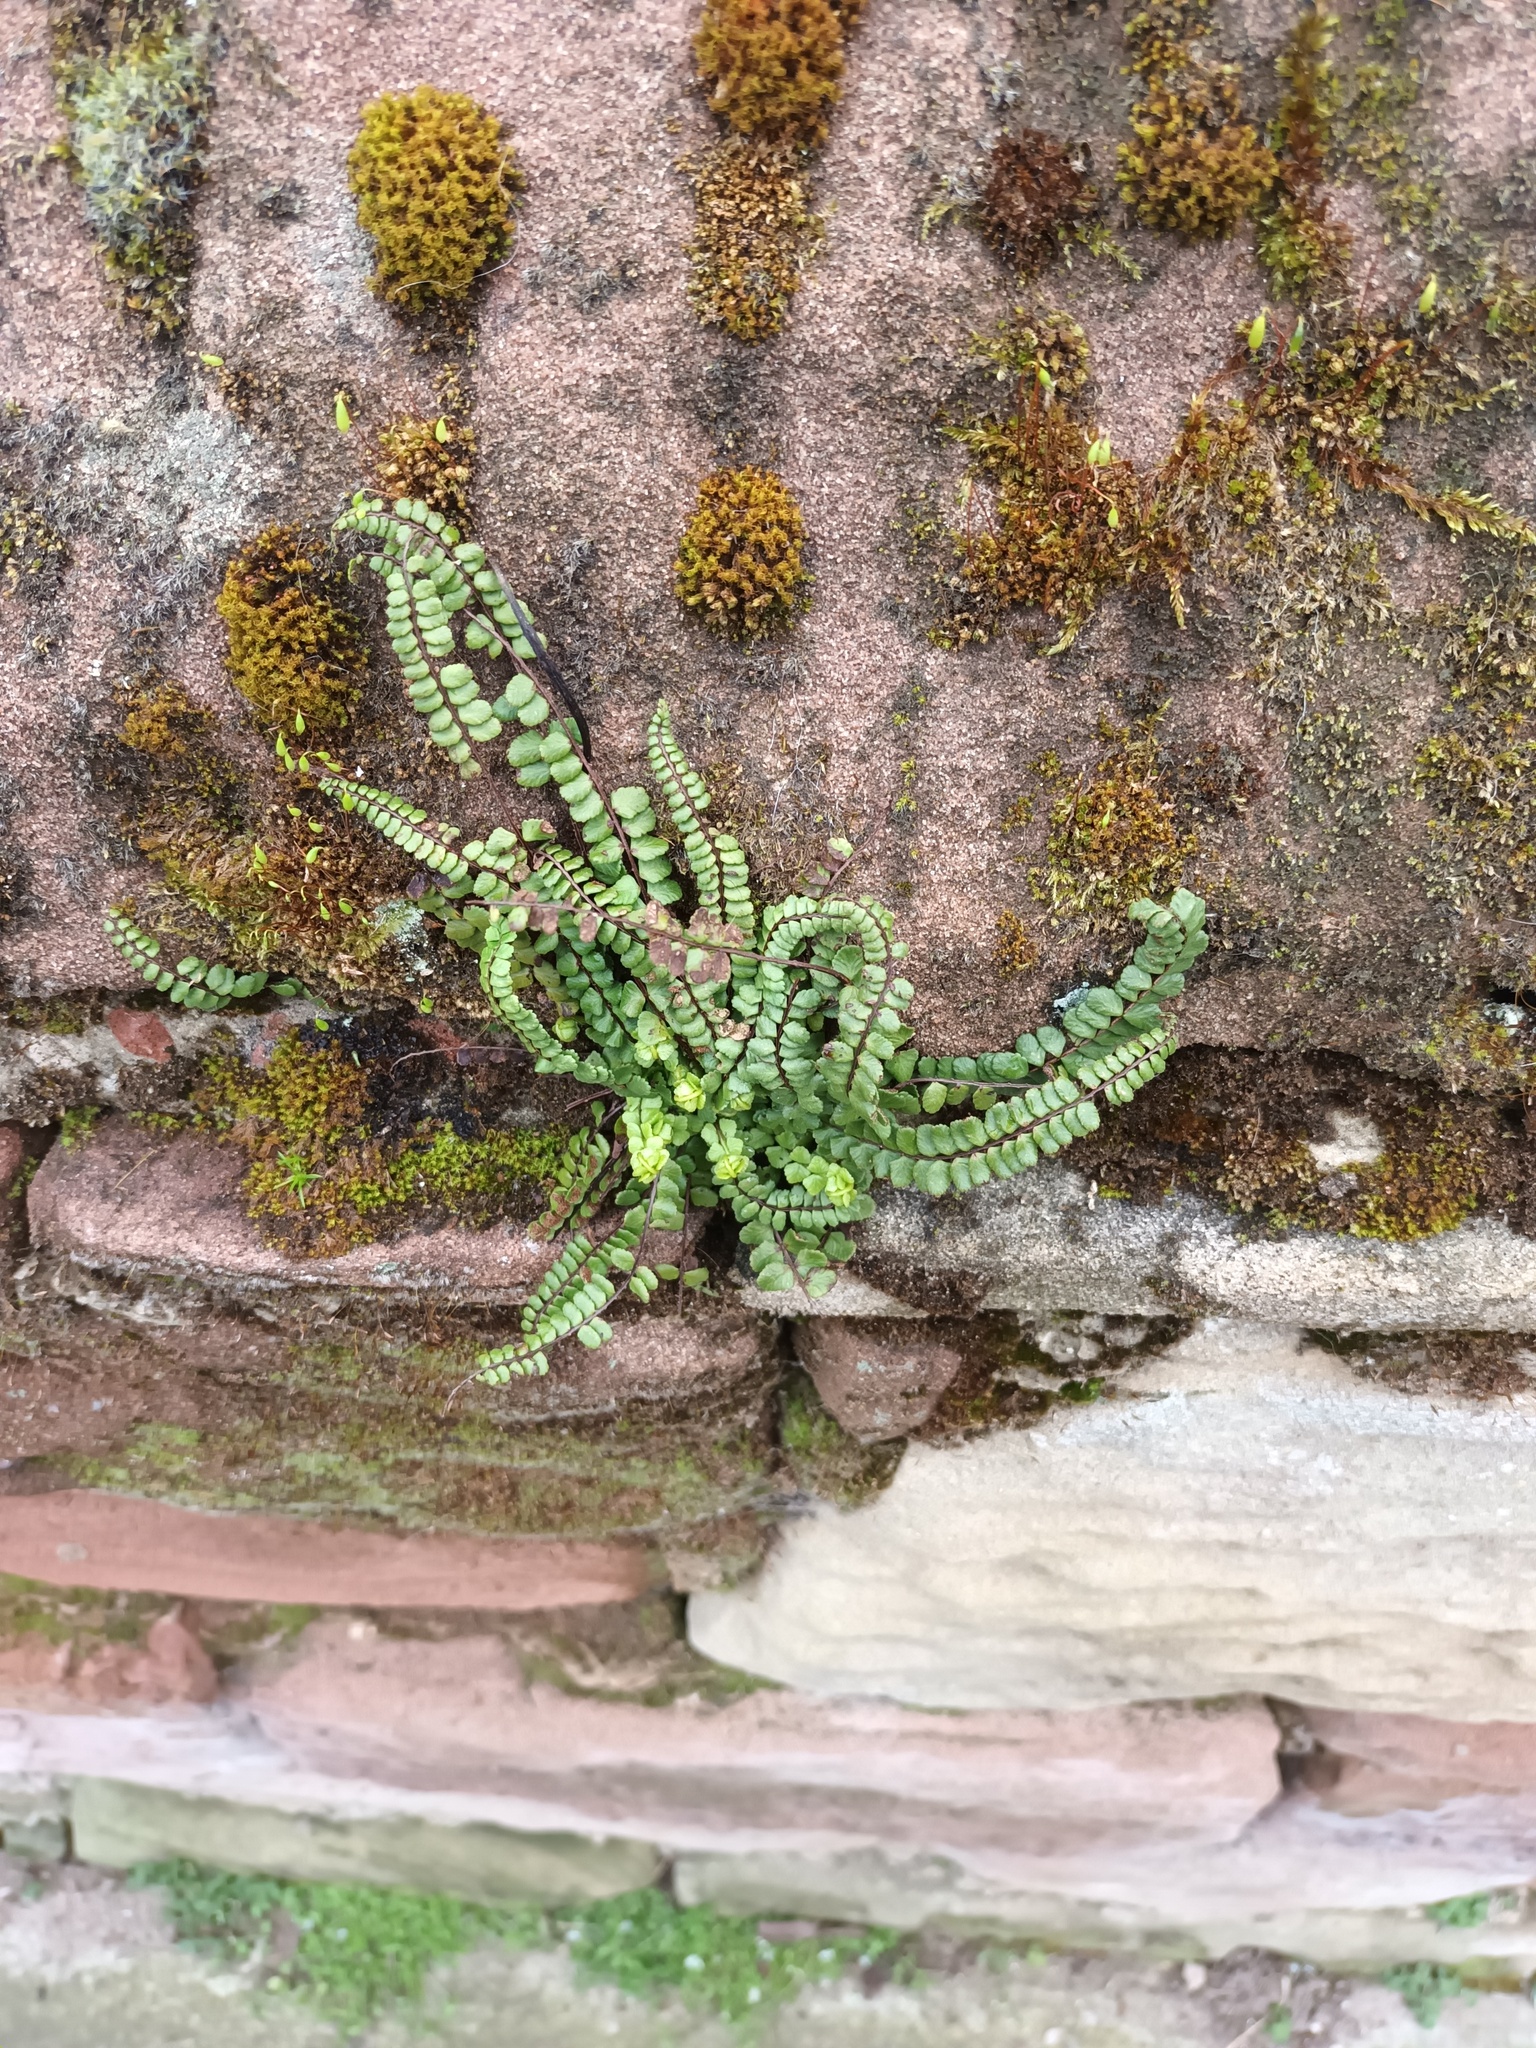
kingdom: Plantae
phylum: Tracheophyta
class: Polypodiopsida
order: Polypodiales
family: Aspleniaceae
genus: Asplenium
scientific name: Asplenium trichomanes
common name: Maidenhair spleenwort
